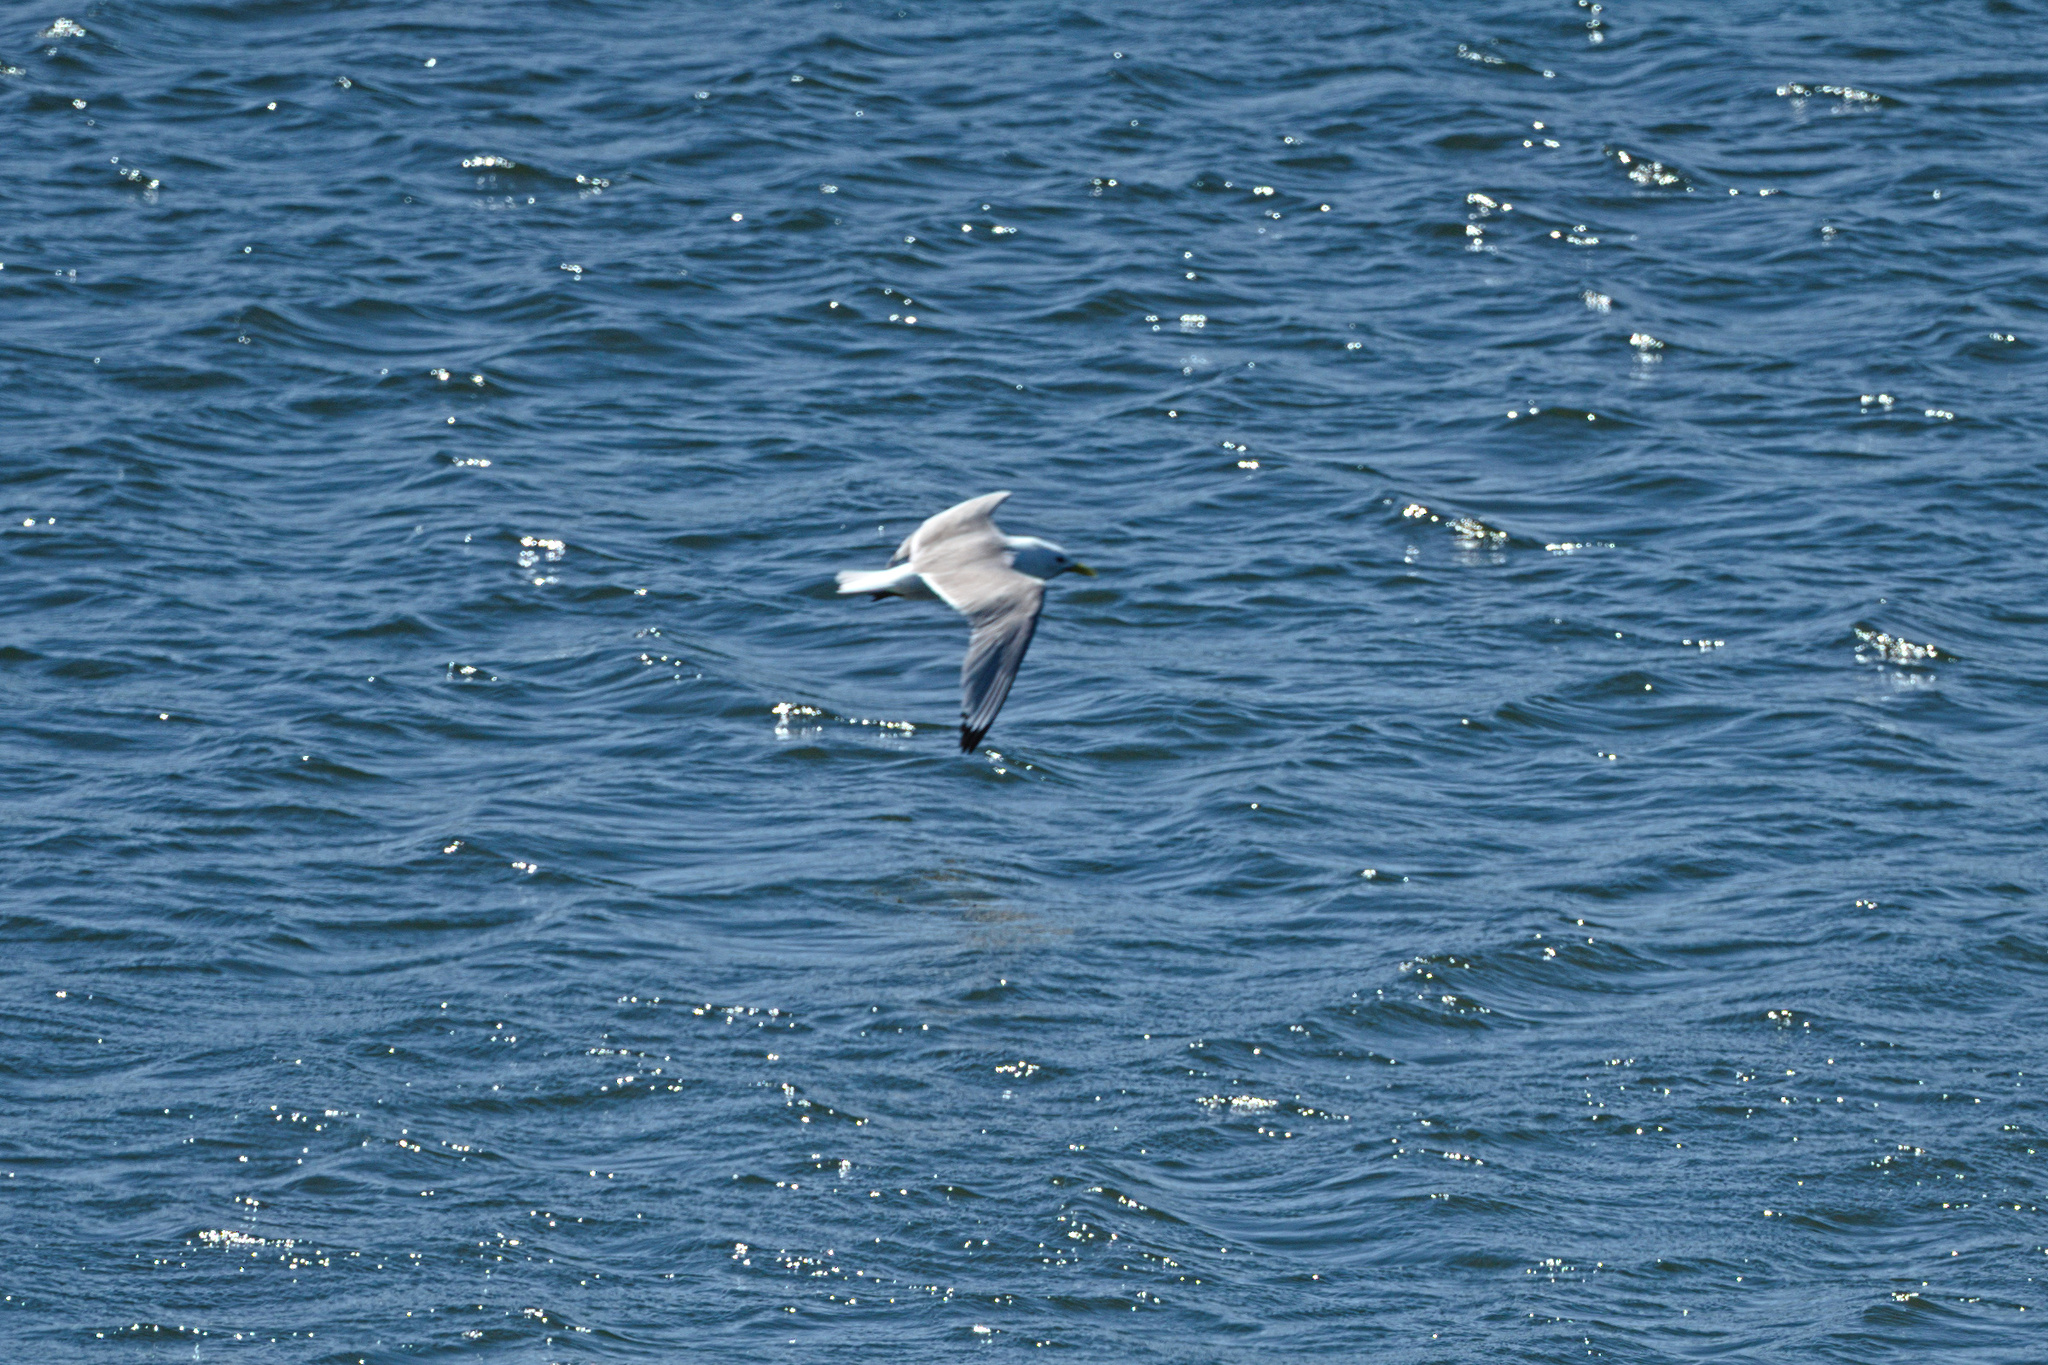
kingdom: Animalia
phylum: Chordata
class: Aves
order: Charadriiformes
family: Laridae
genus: Rissa
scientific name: Rissa tridactyla
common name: Black-legged kittiwake
